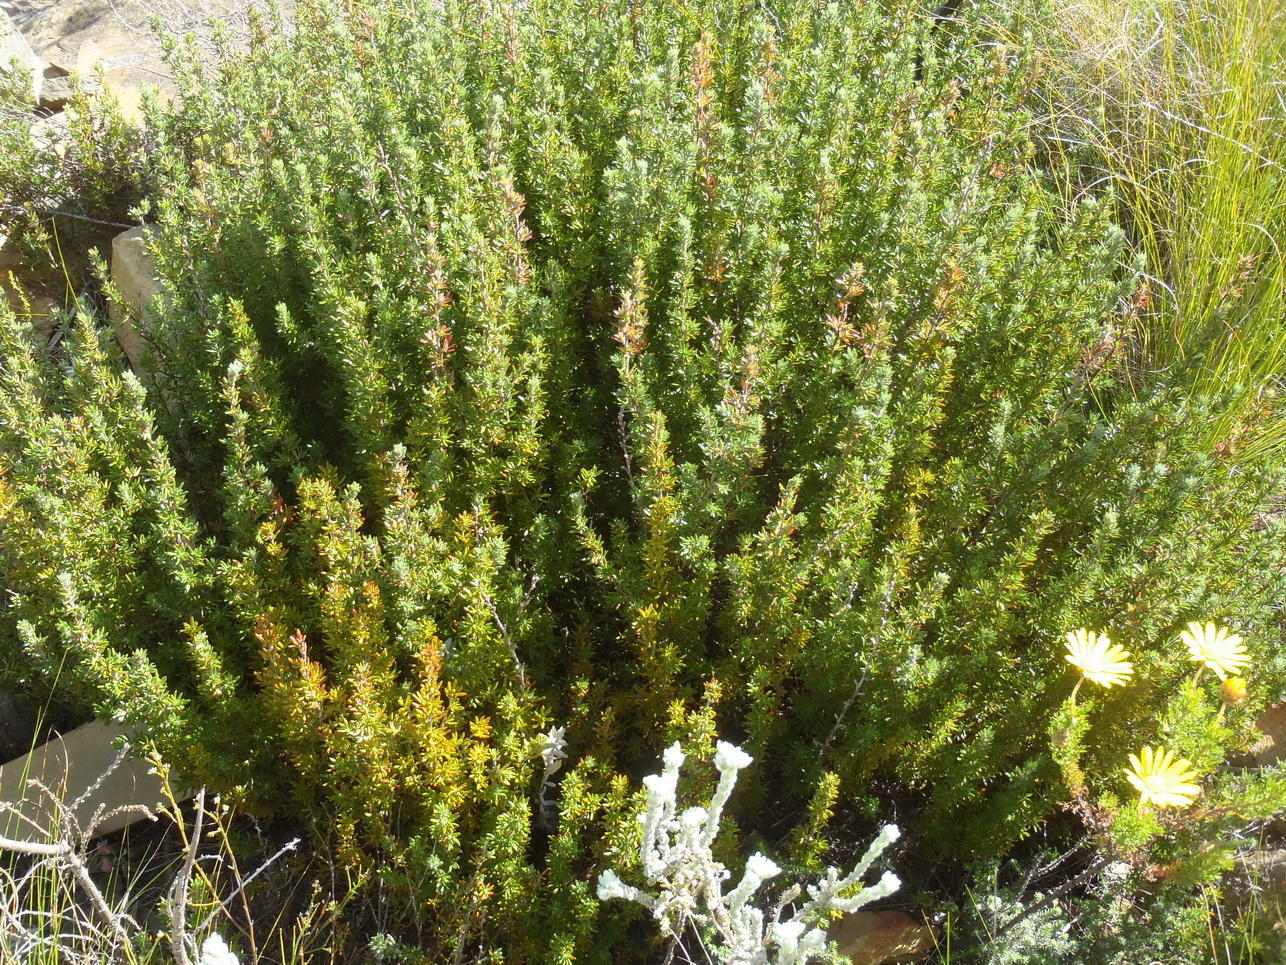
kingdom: Plantae
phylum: Tracheophyta
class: Magnoliopsida
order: Rosales
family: Rosaceae
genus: Cliffortia
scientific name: Cliffortia eriocephalina
